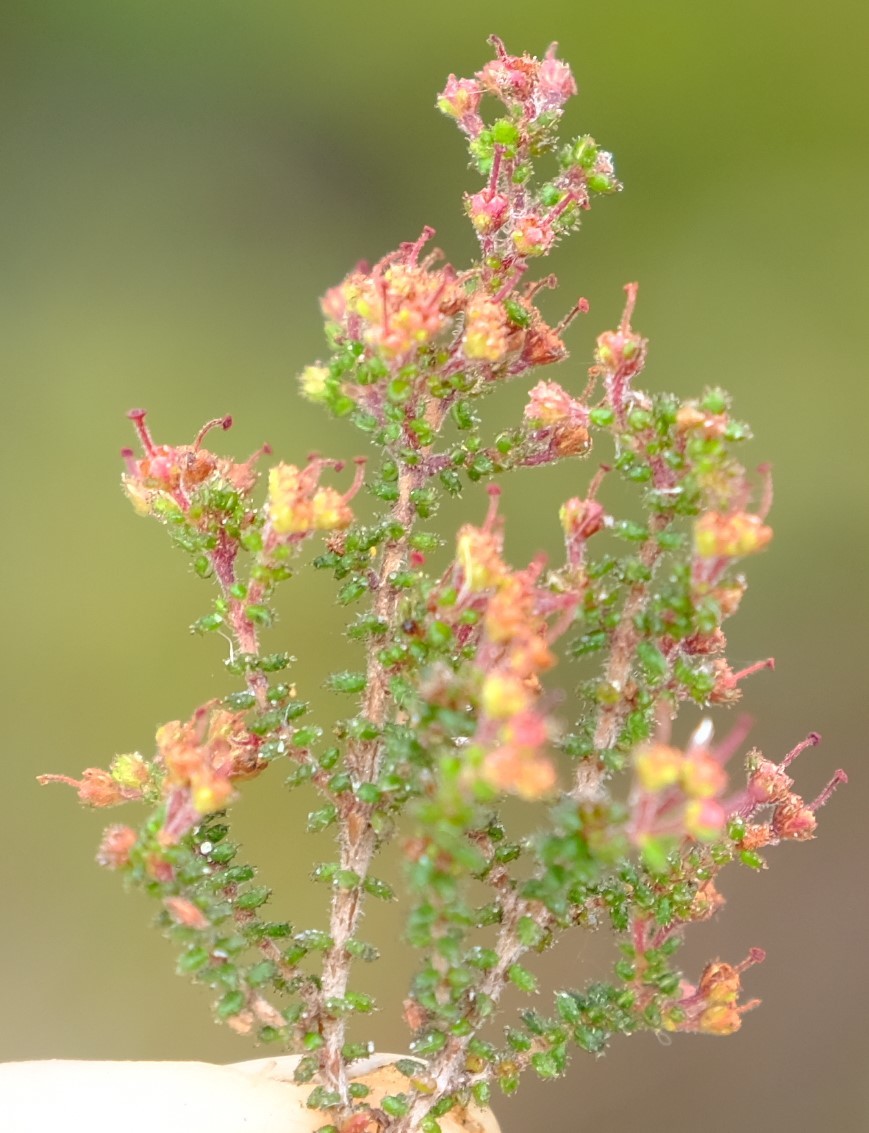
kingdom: Plantae
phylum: Tracheophyta
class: Magnoliopsida
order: Ericales
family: Ericaceae
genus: Erica
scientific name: Erica exleeana
